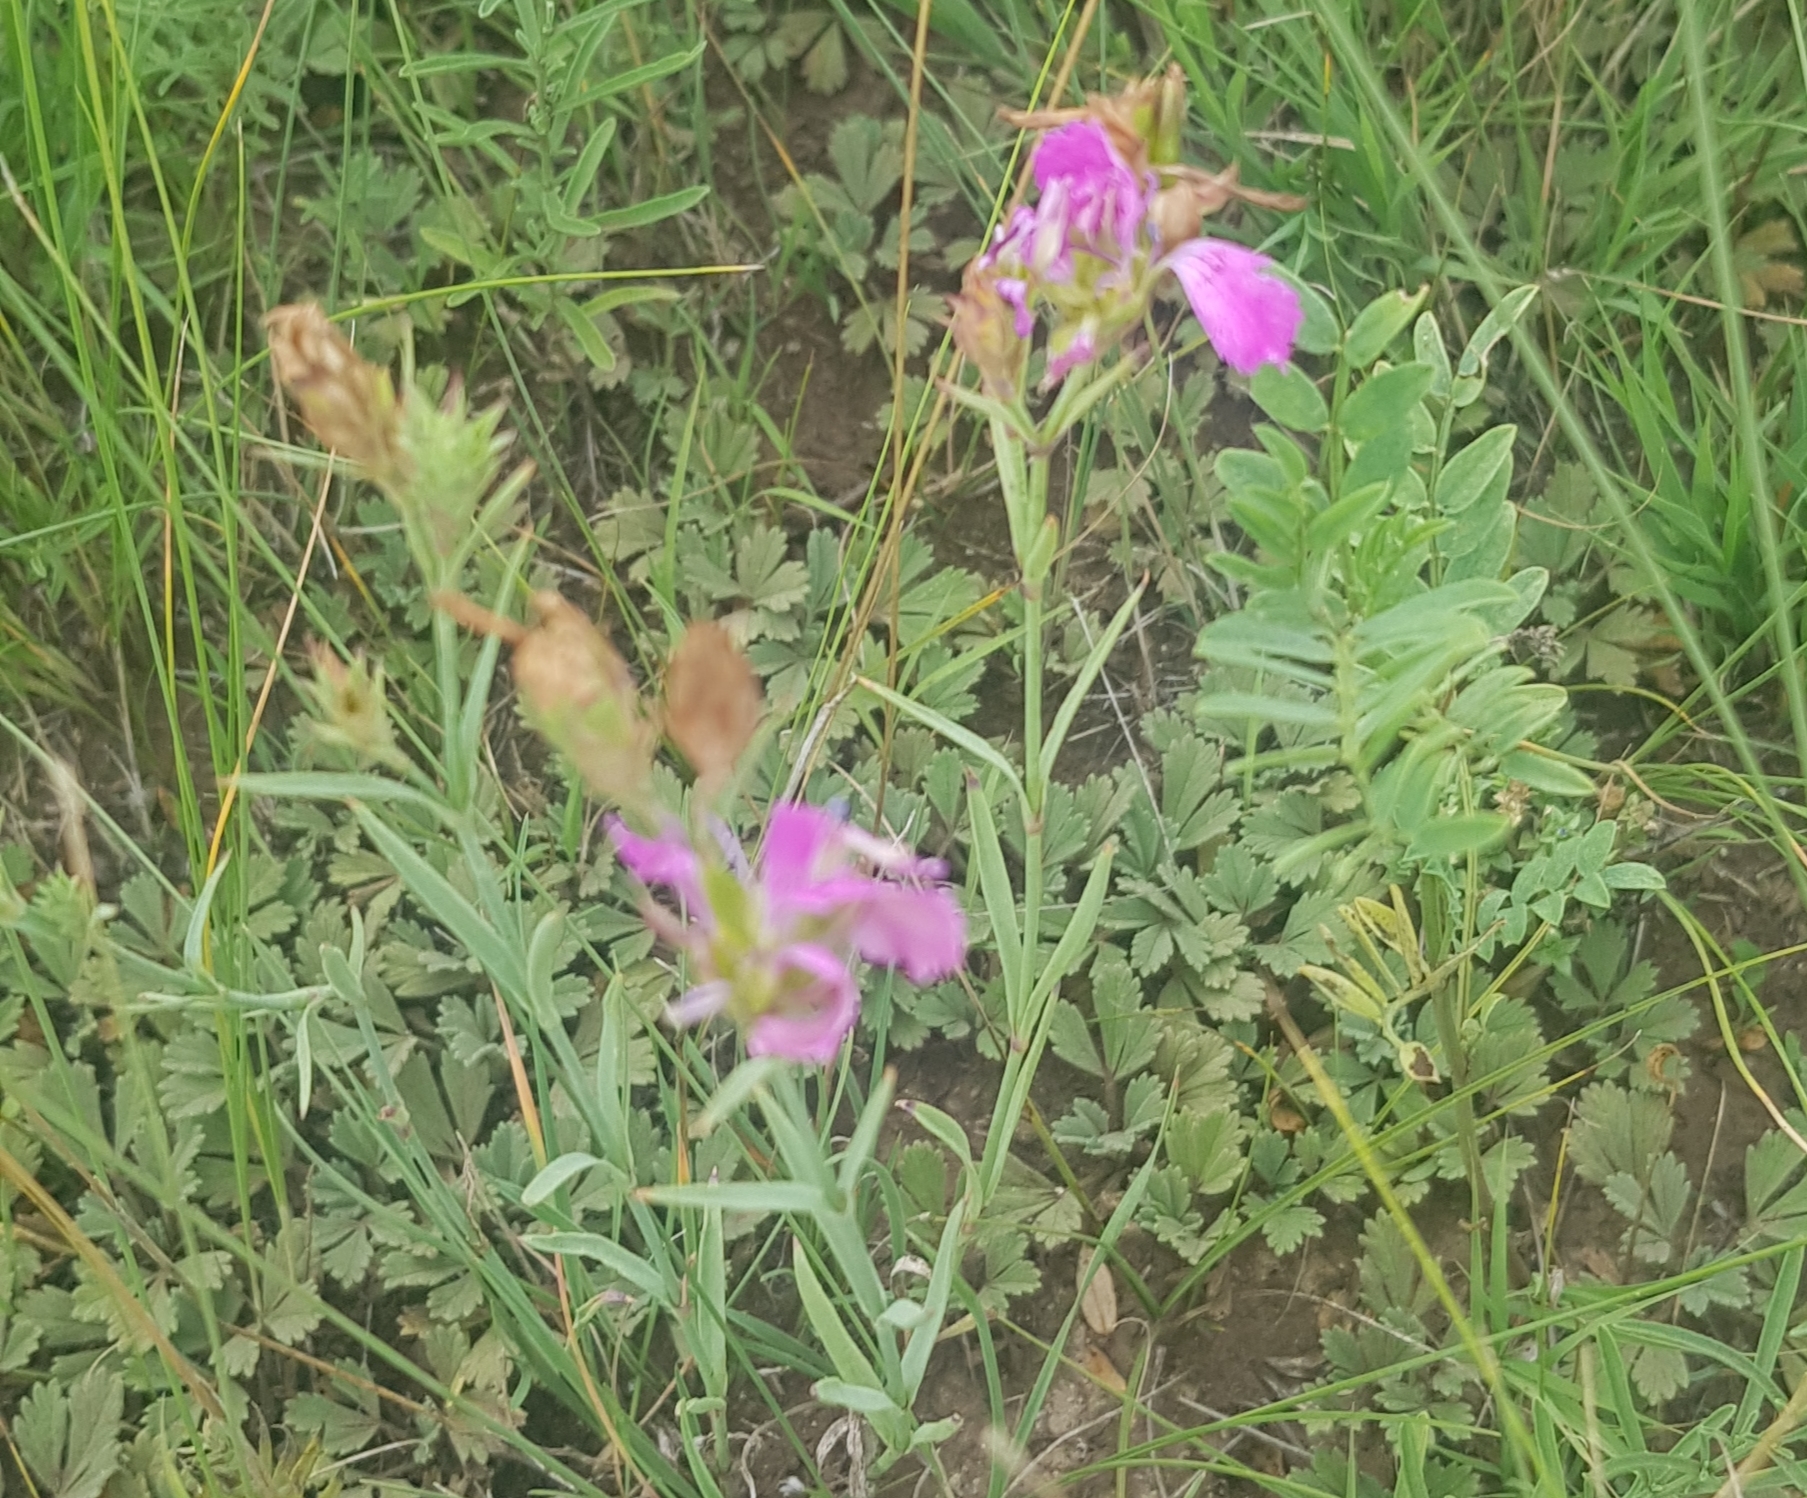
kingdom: Plantae
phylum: Tracheophyta
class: Magnoliopsida
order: Caryophyllales
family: Caryophyllaceae
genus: Dianthus
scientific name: Dianthus chinensis
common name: Rainbow pink
